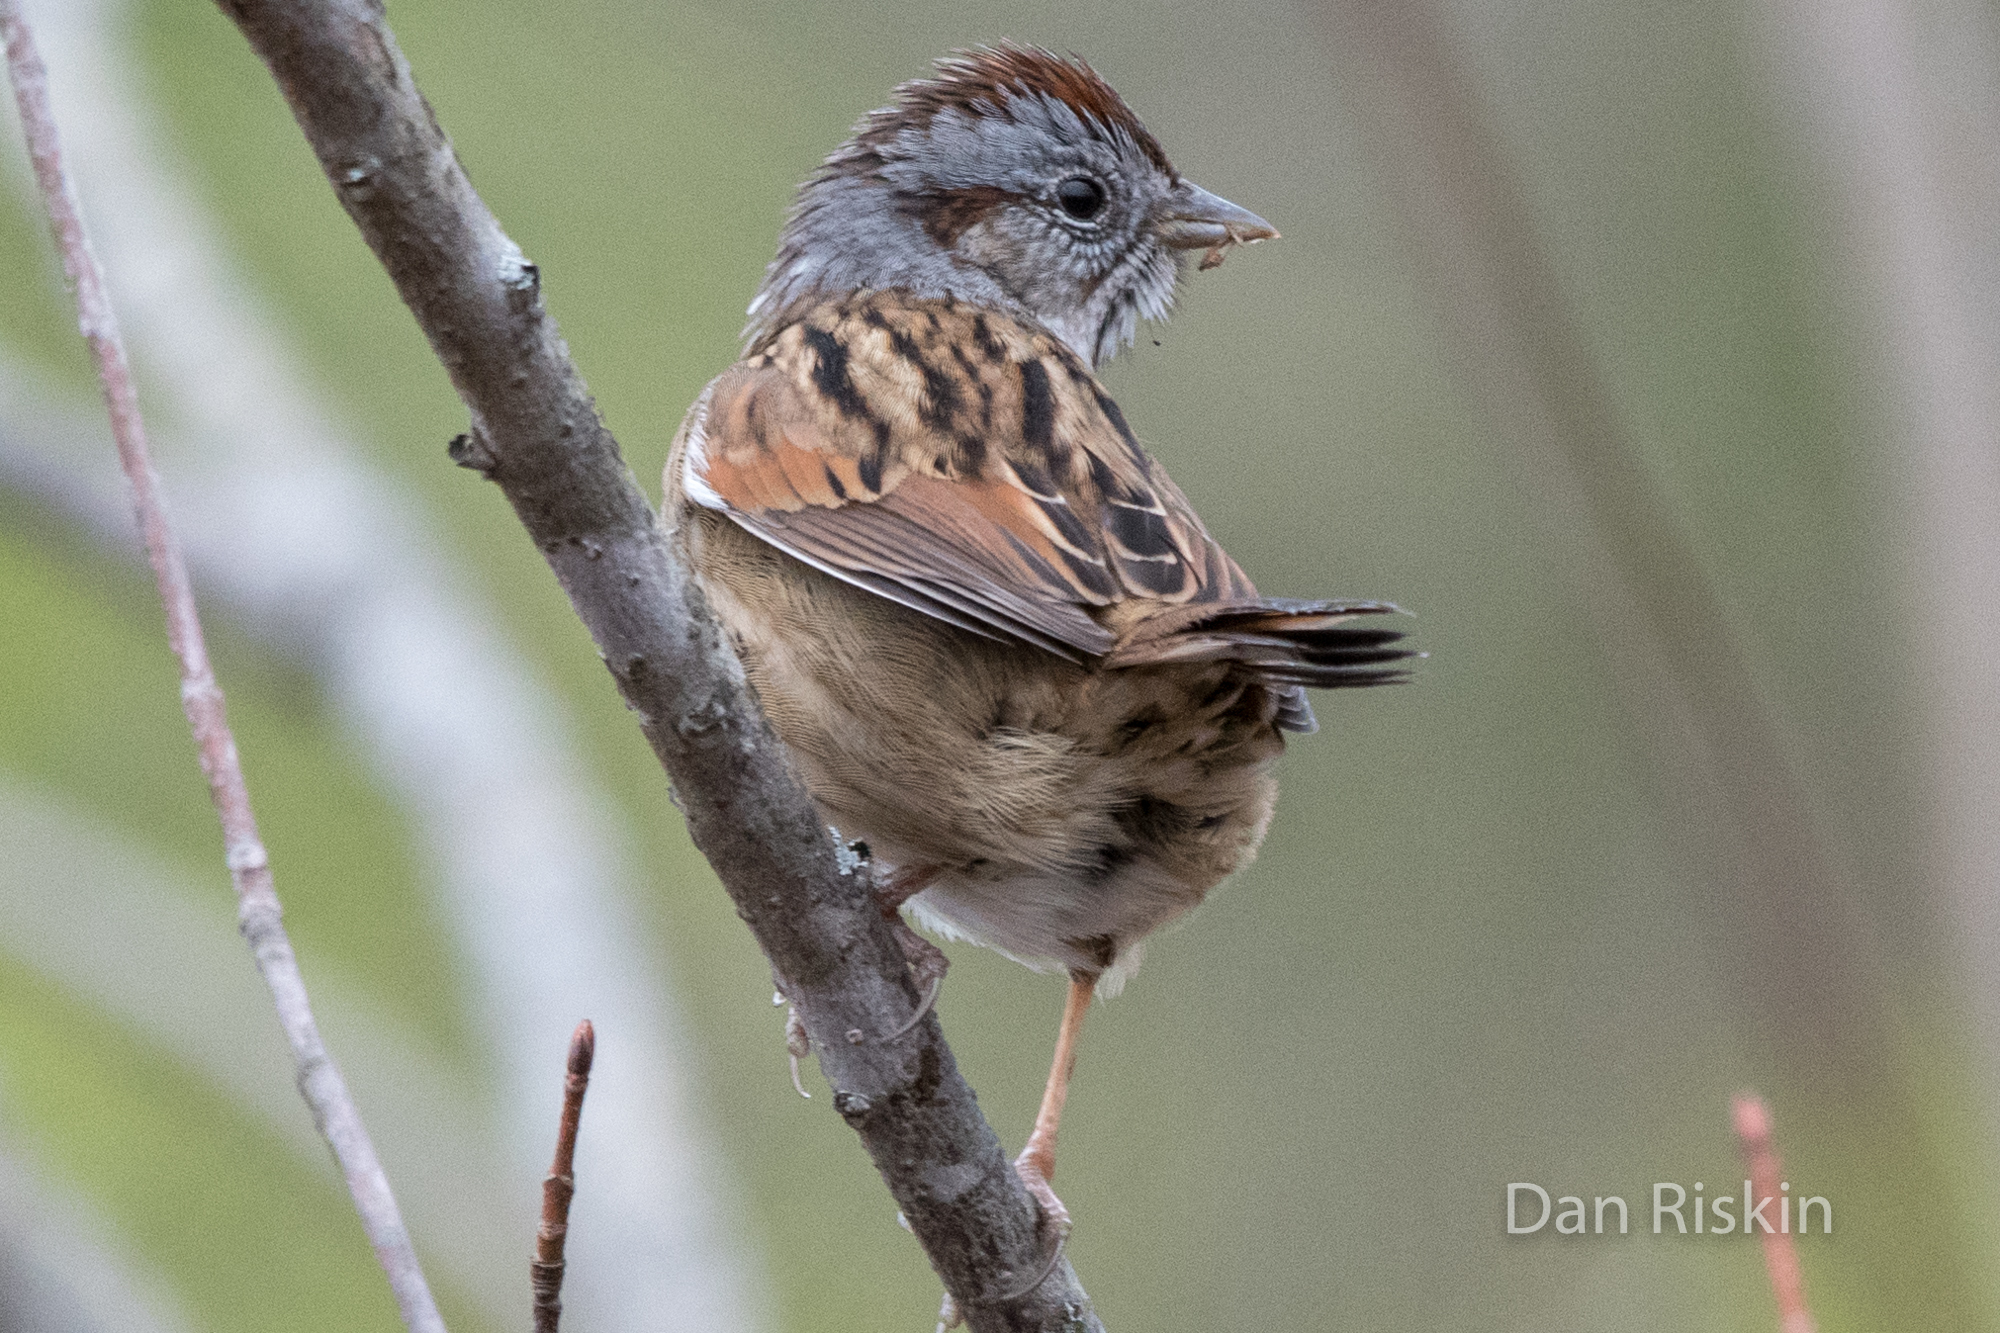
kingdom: Animalia
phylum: Chordata
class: Aves
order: Passeriformes
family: Passerellidae
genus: Melospiza
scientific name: Melospiza georgiana
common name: Swamp sparrow
